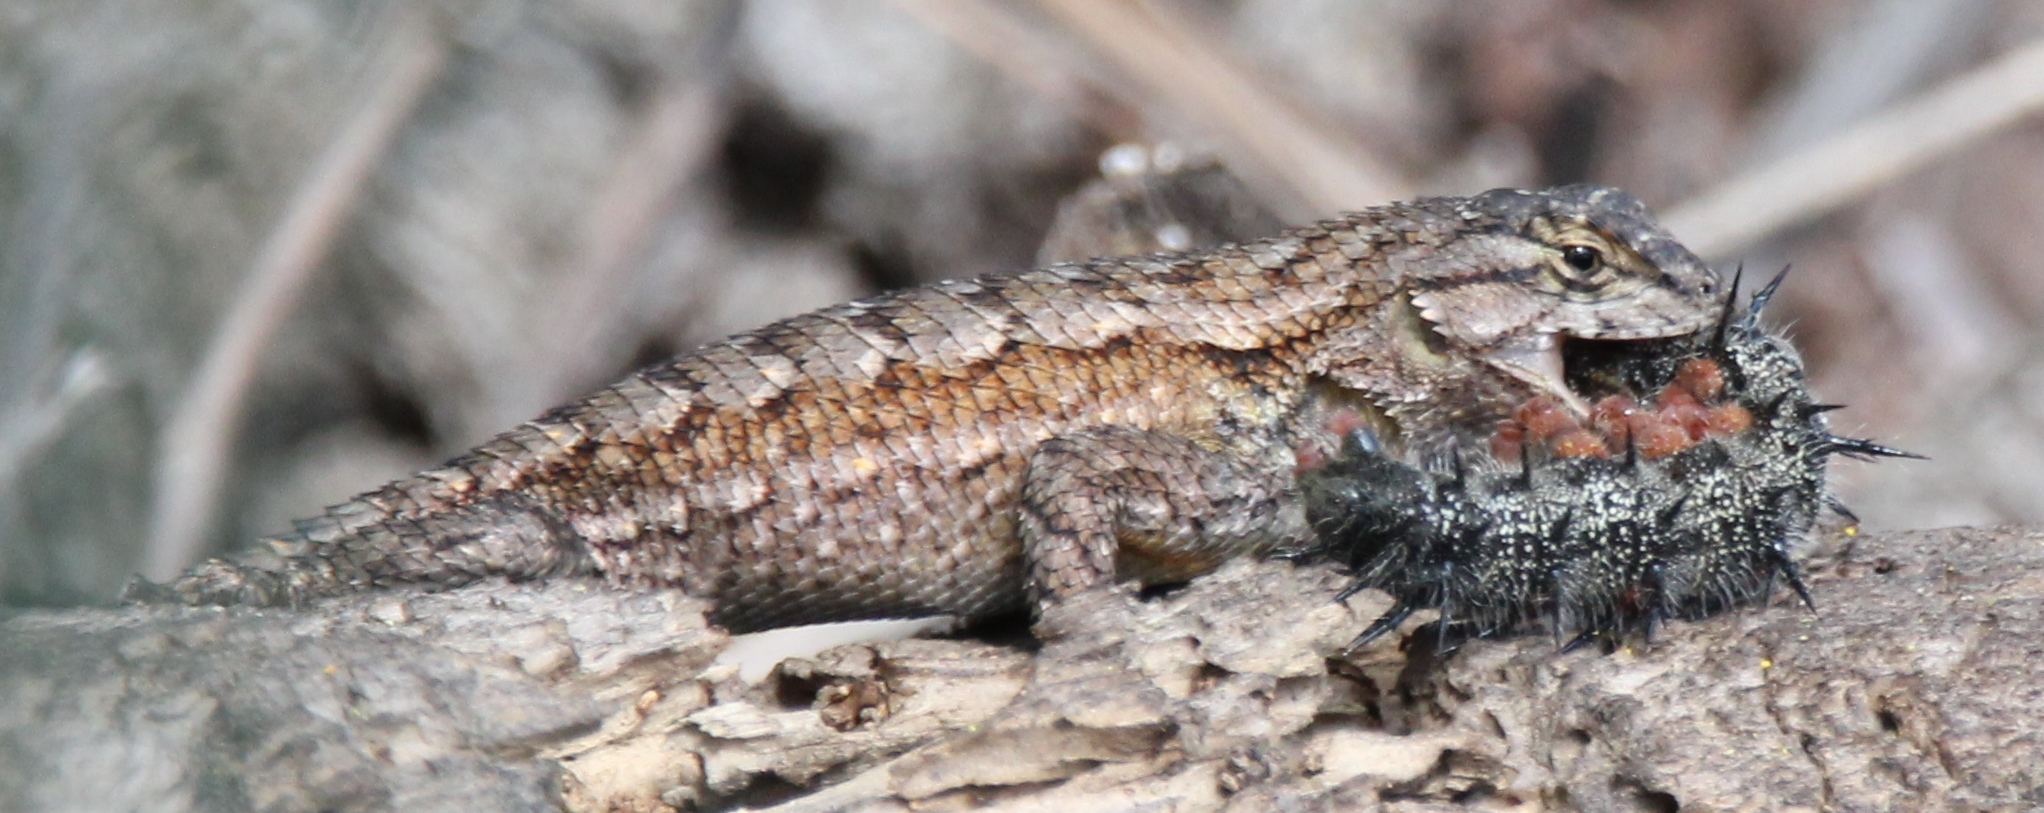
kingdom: Animalia
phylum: Chordata
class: Squamata
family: Phrynosomatidae
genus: Sceloporus
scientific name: Sceloporus occidentalis
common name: Western fence lizard
